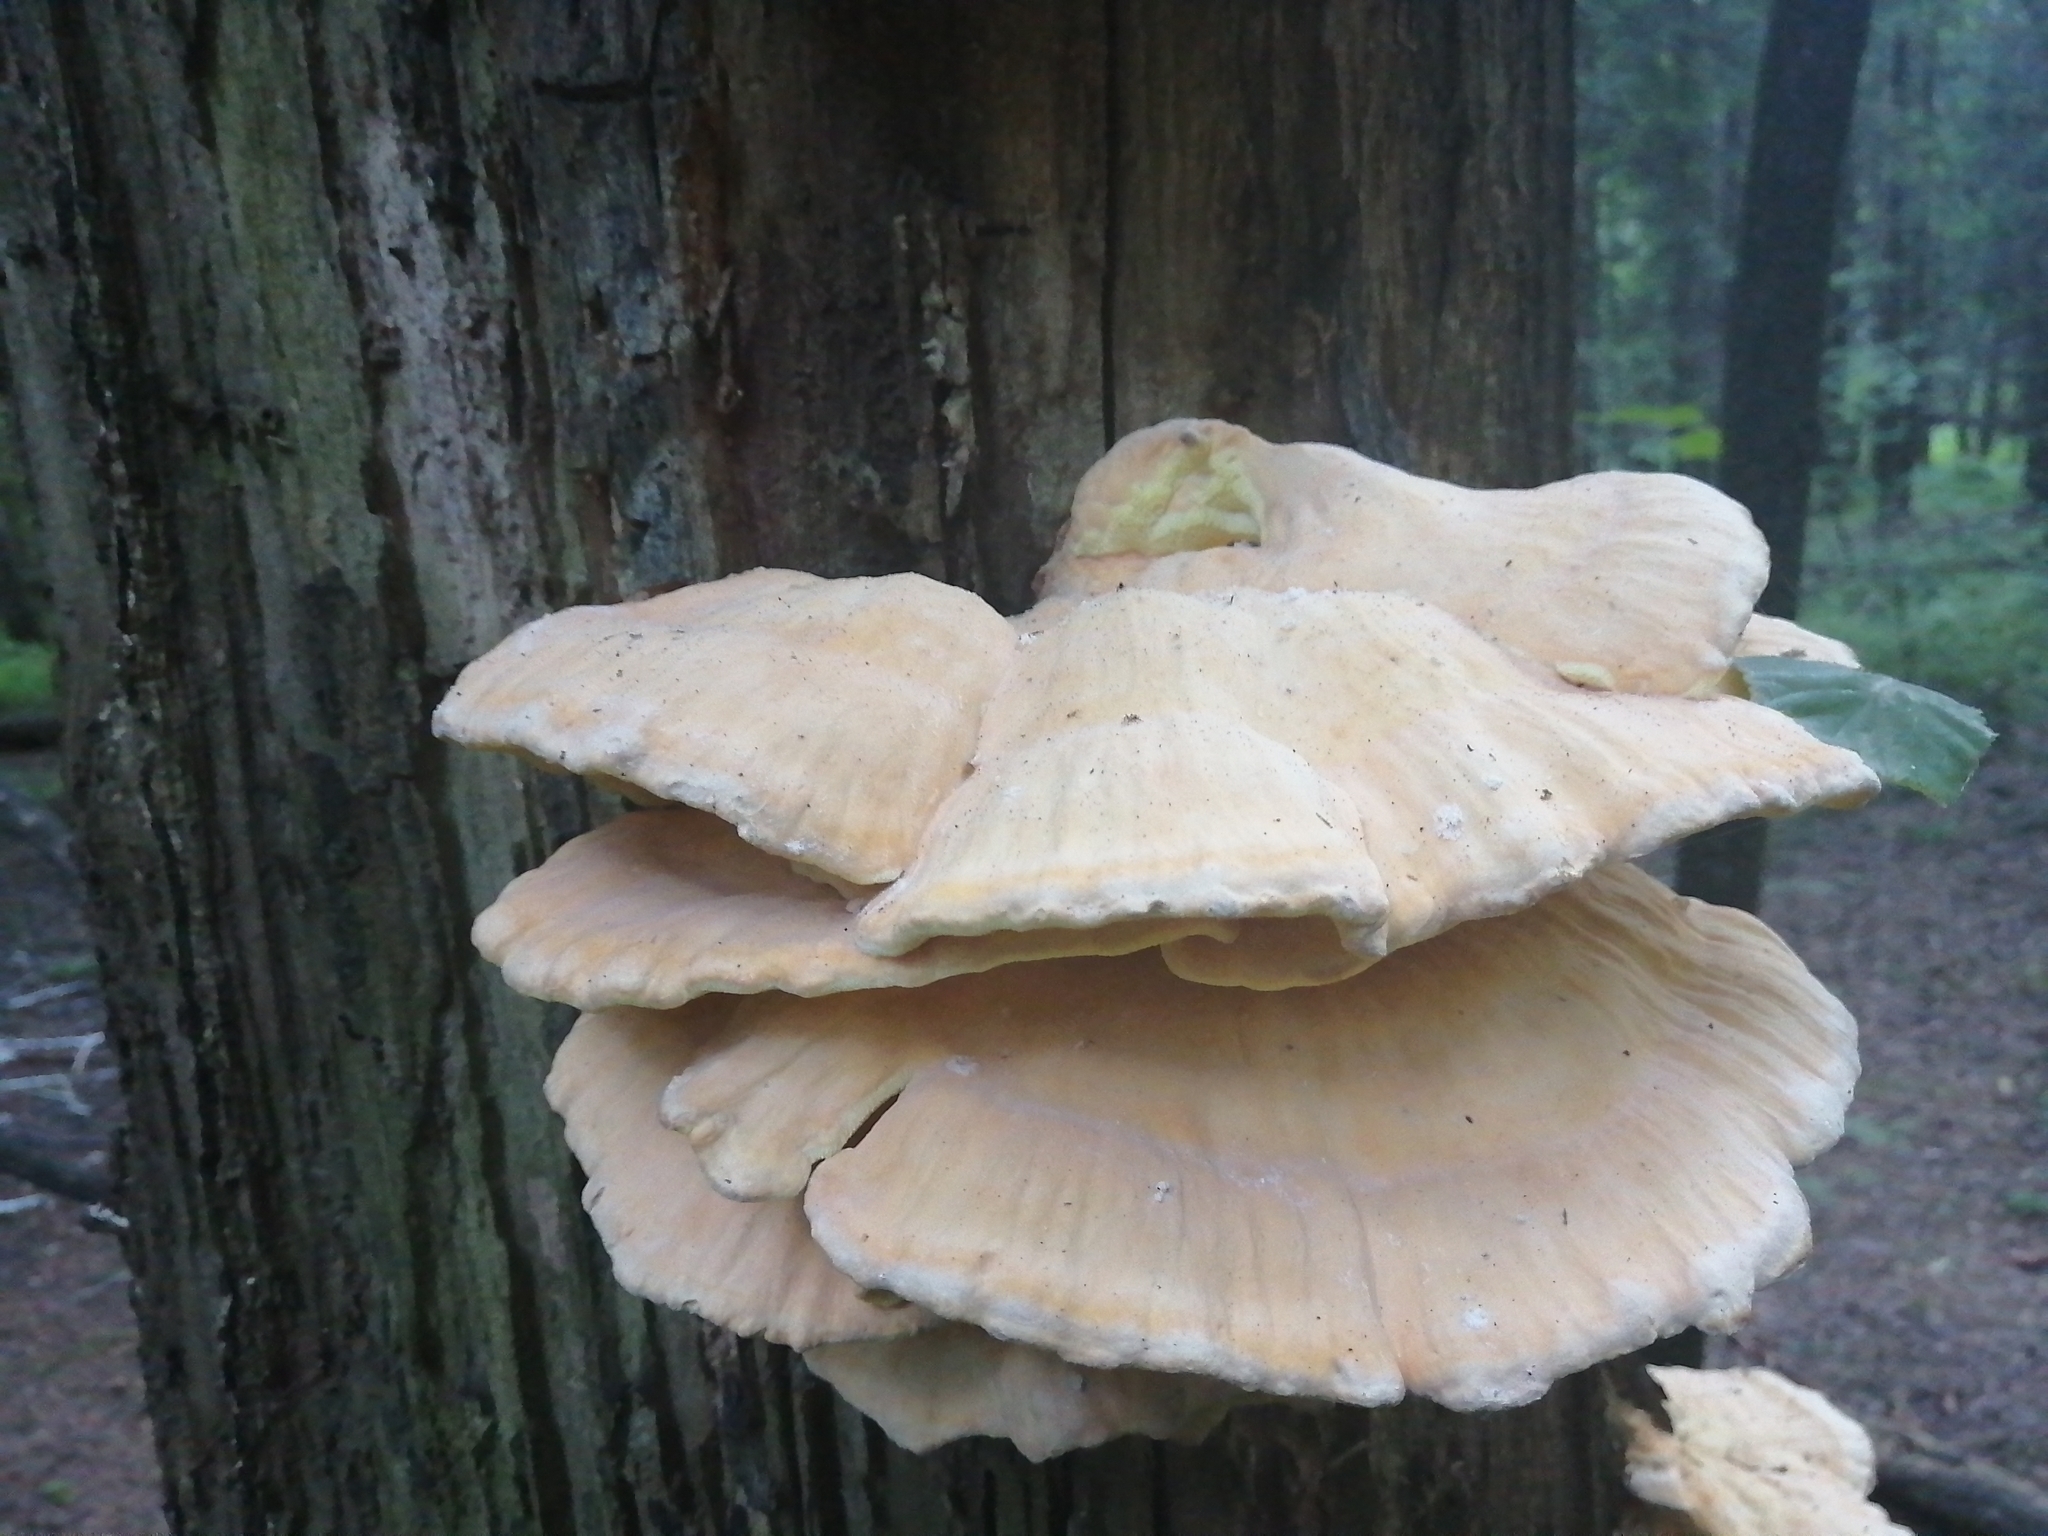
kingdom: Fungi
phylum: Basidiomycota
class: Agaricomycetes
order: Polyporales
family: Laetiporaceae
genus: Laetiporus
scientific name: Laetiporus sulphureus
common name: Chicken of the woods
